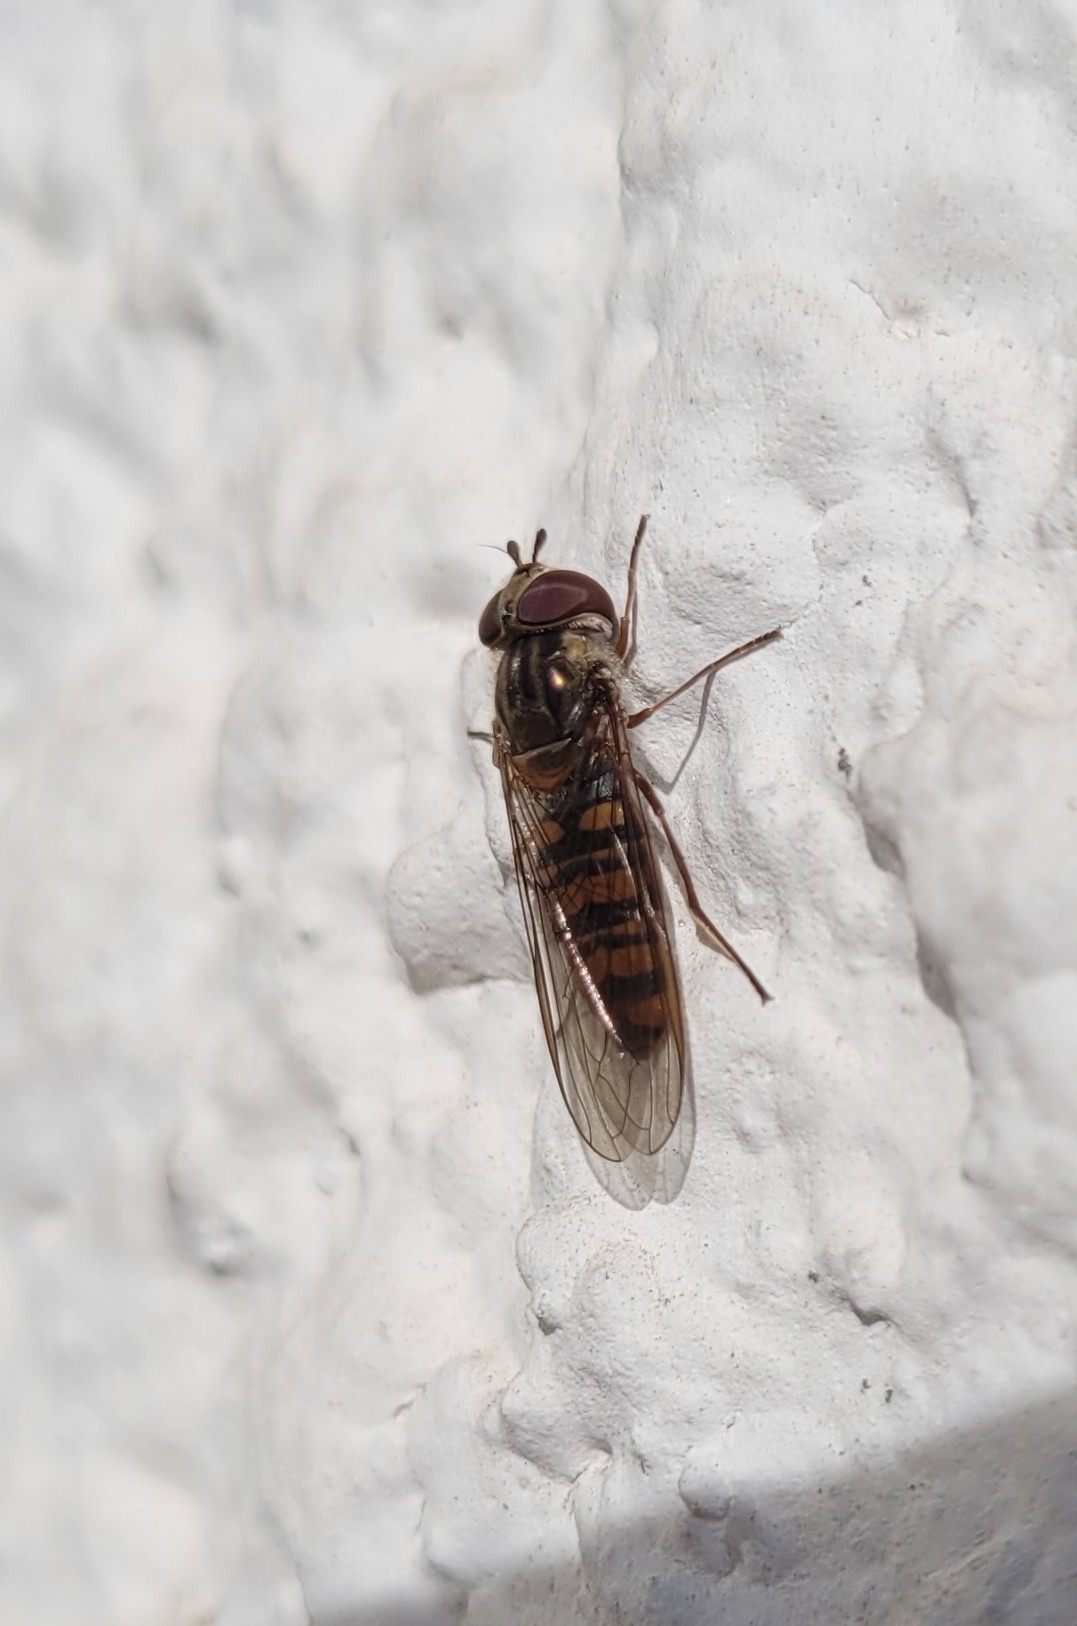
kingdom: Animalia
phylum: Arthropoda
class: Insecta
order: Diptera
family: Syrphidae
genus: Episyrphus
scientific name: Episyrphus balteatus
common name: Marmalade hoverfly
